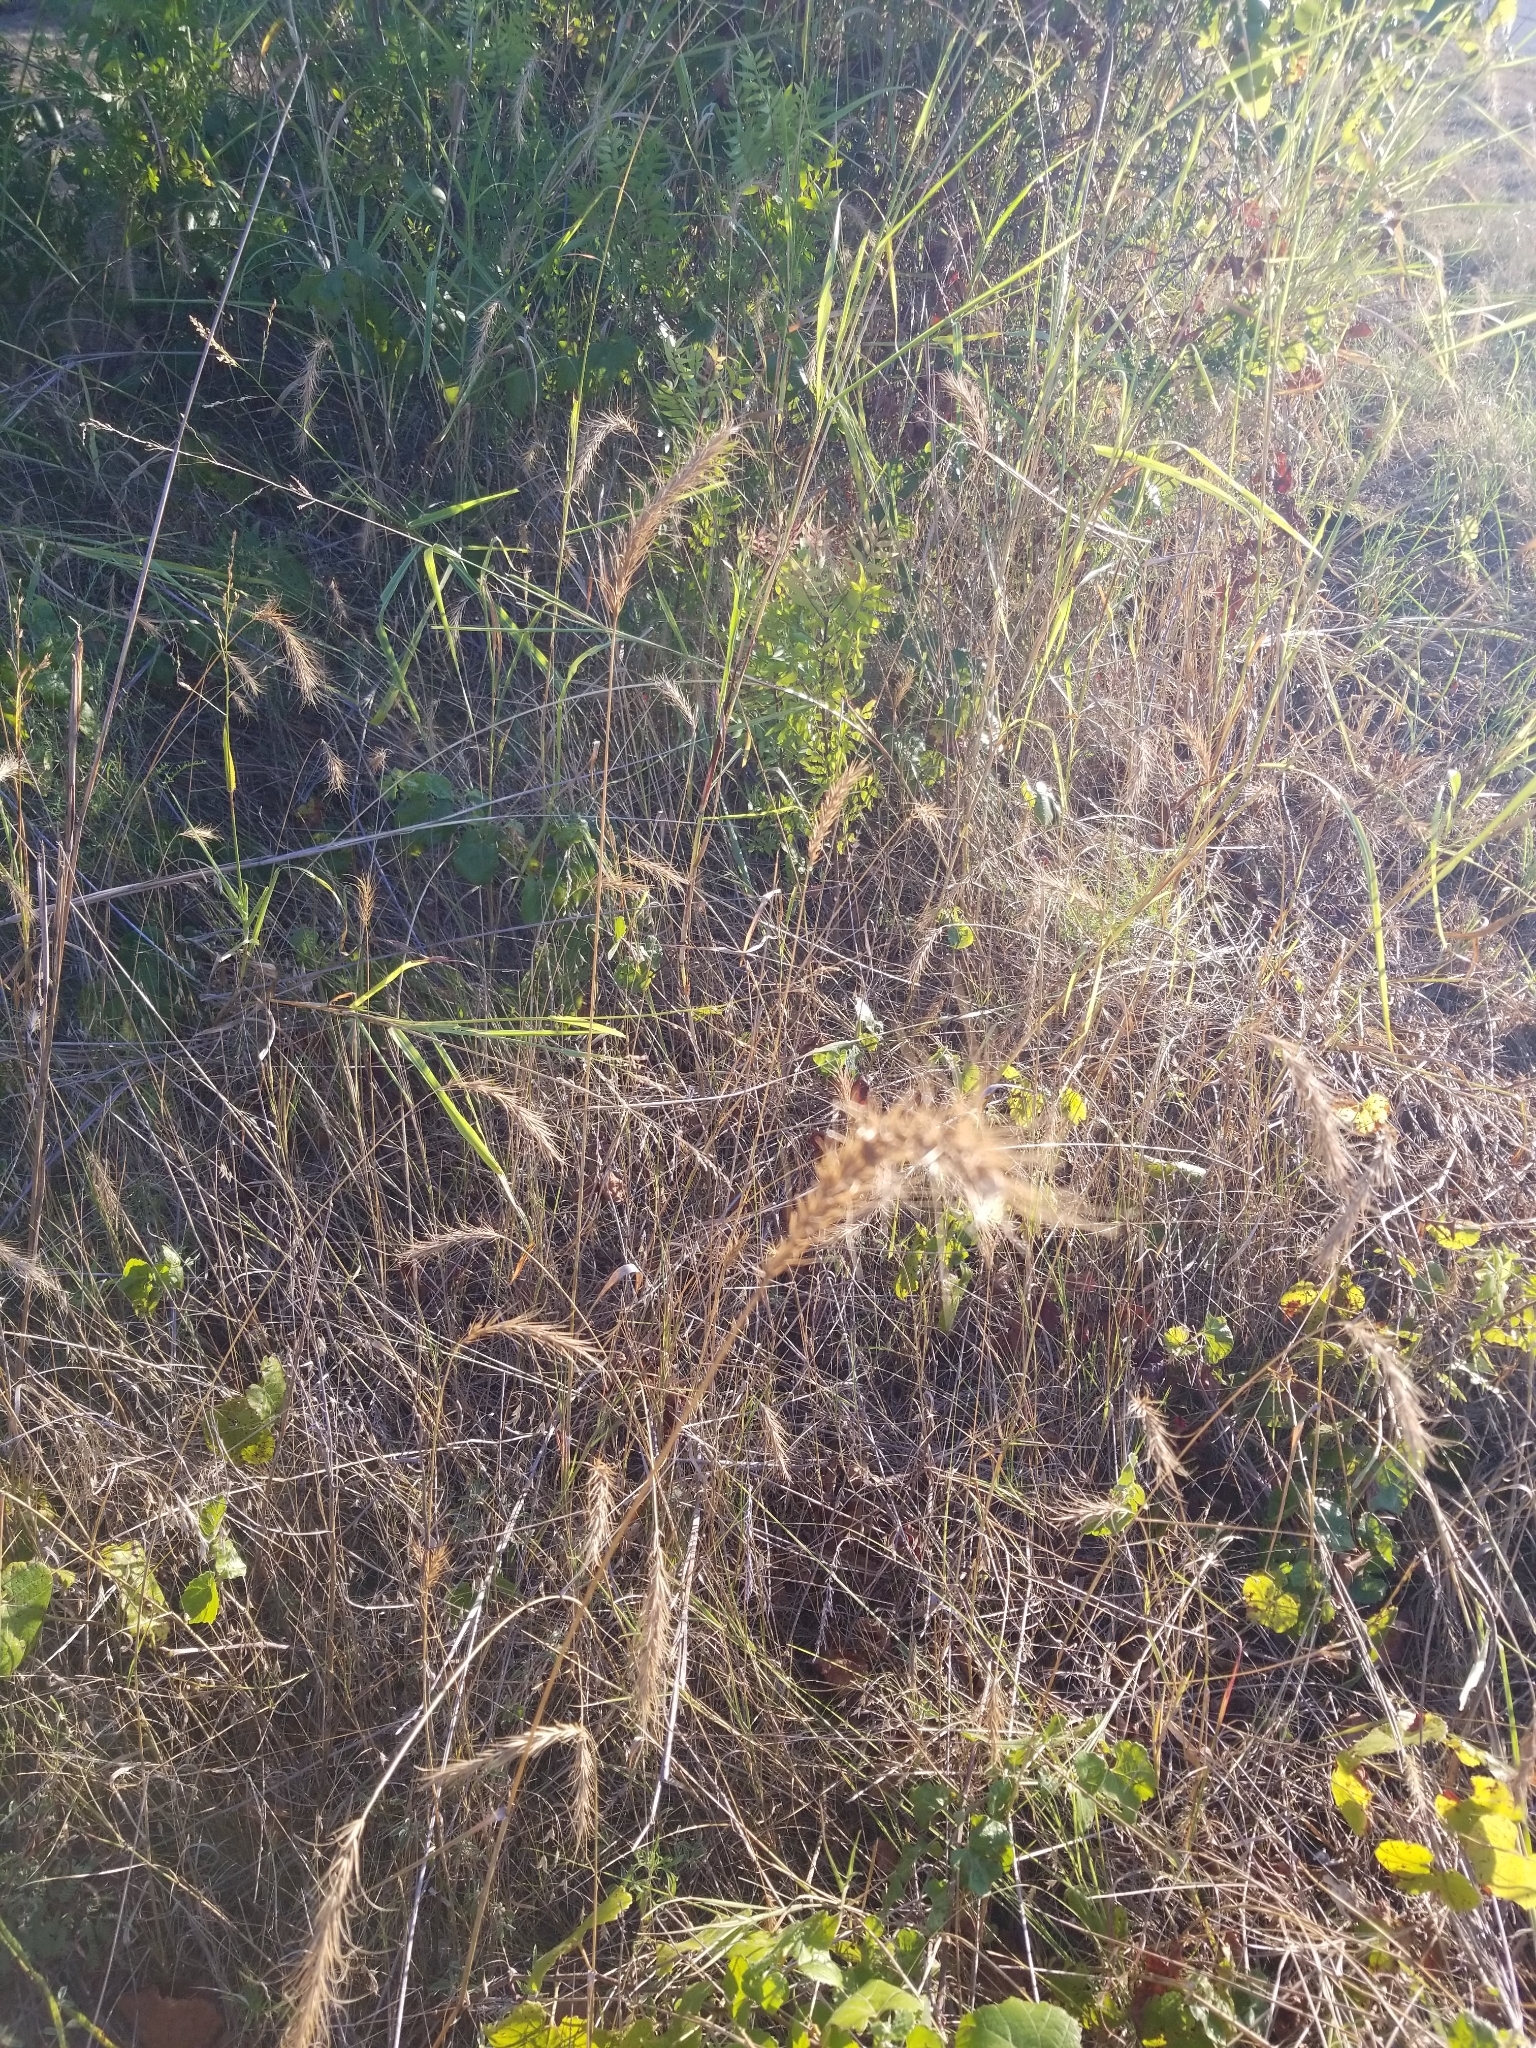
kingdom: Plantae
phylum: Tracheophyta
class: Liliopsida
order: Poales
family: Poaceae
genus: Elymus
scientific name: Elymus canadensis
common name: Canada wild rye
